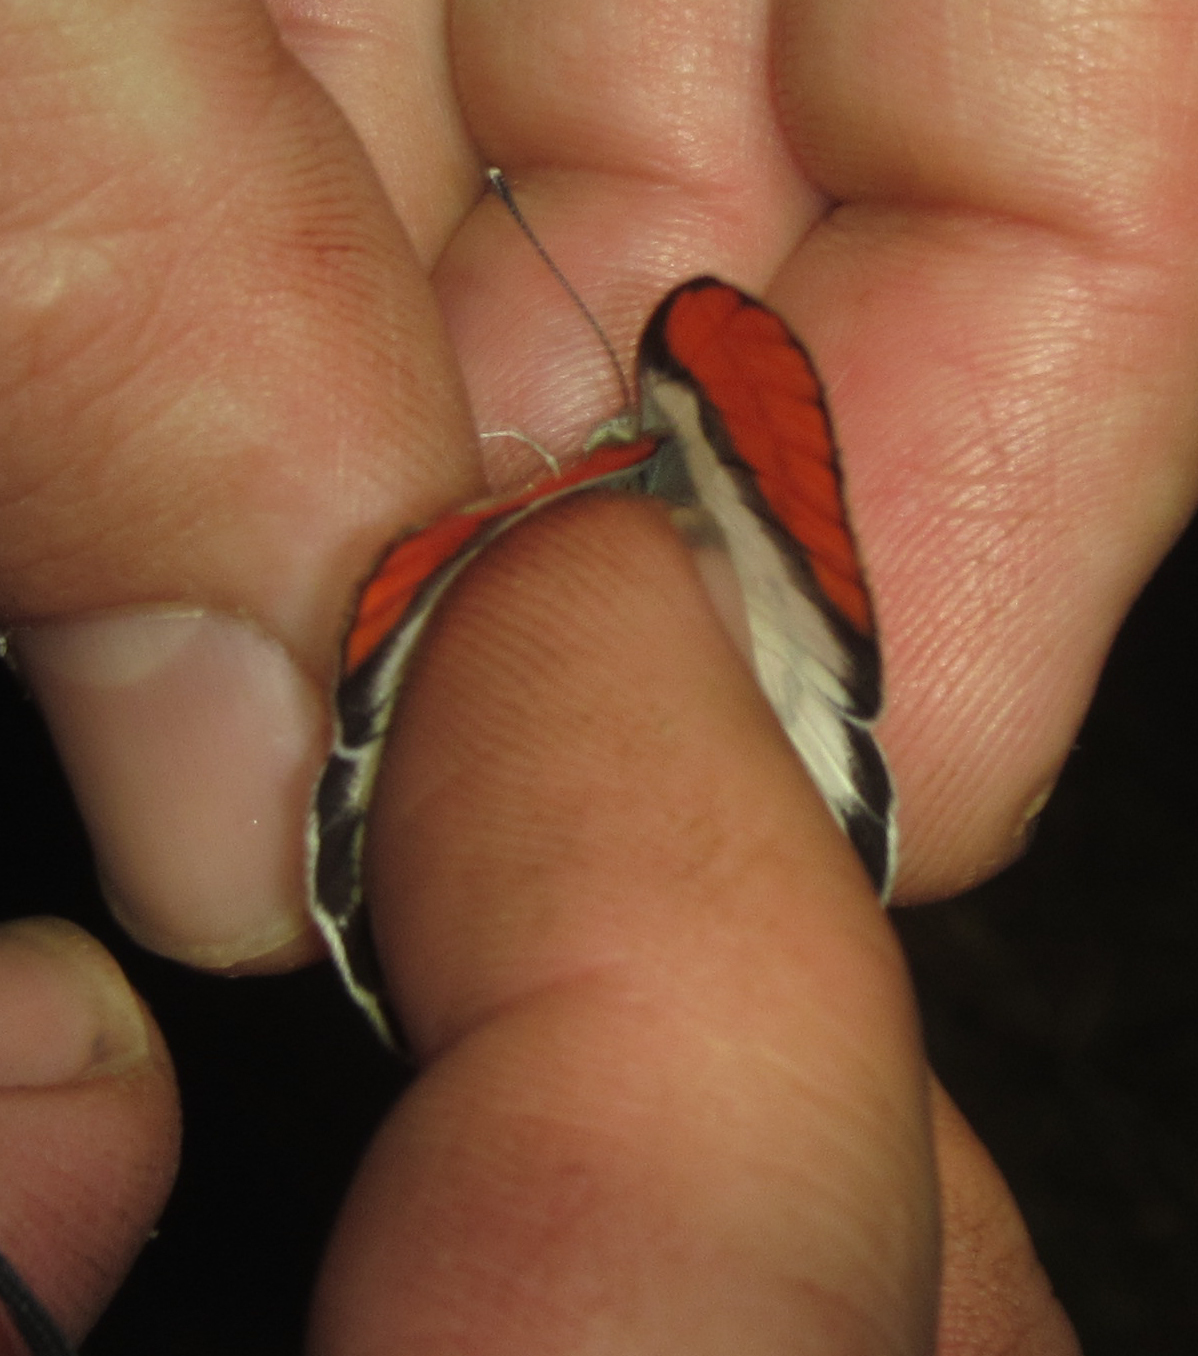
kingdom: Animalia
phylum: Arthropoda
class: Insecta
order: Lepidoptera
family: Pieridae
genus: Colotis
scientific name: Colotis annae
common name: Scarlet tip
